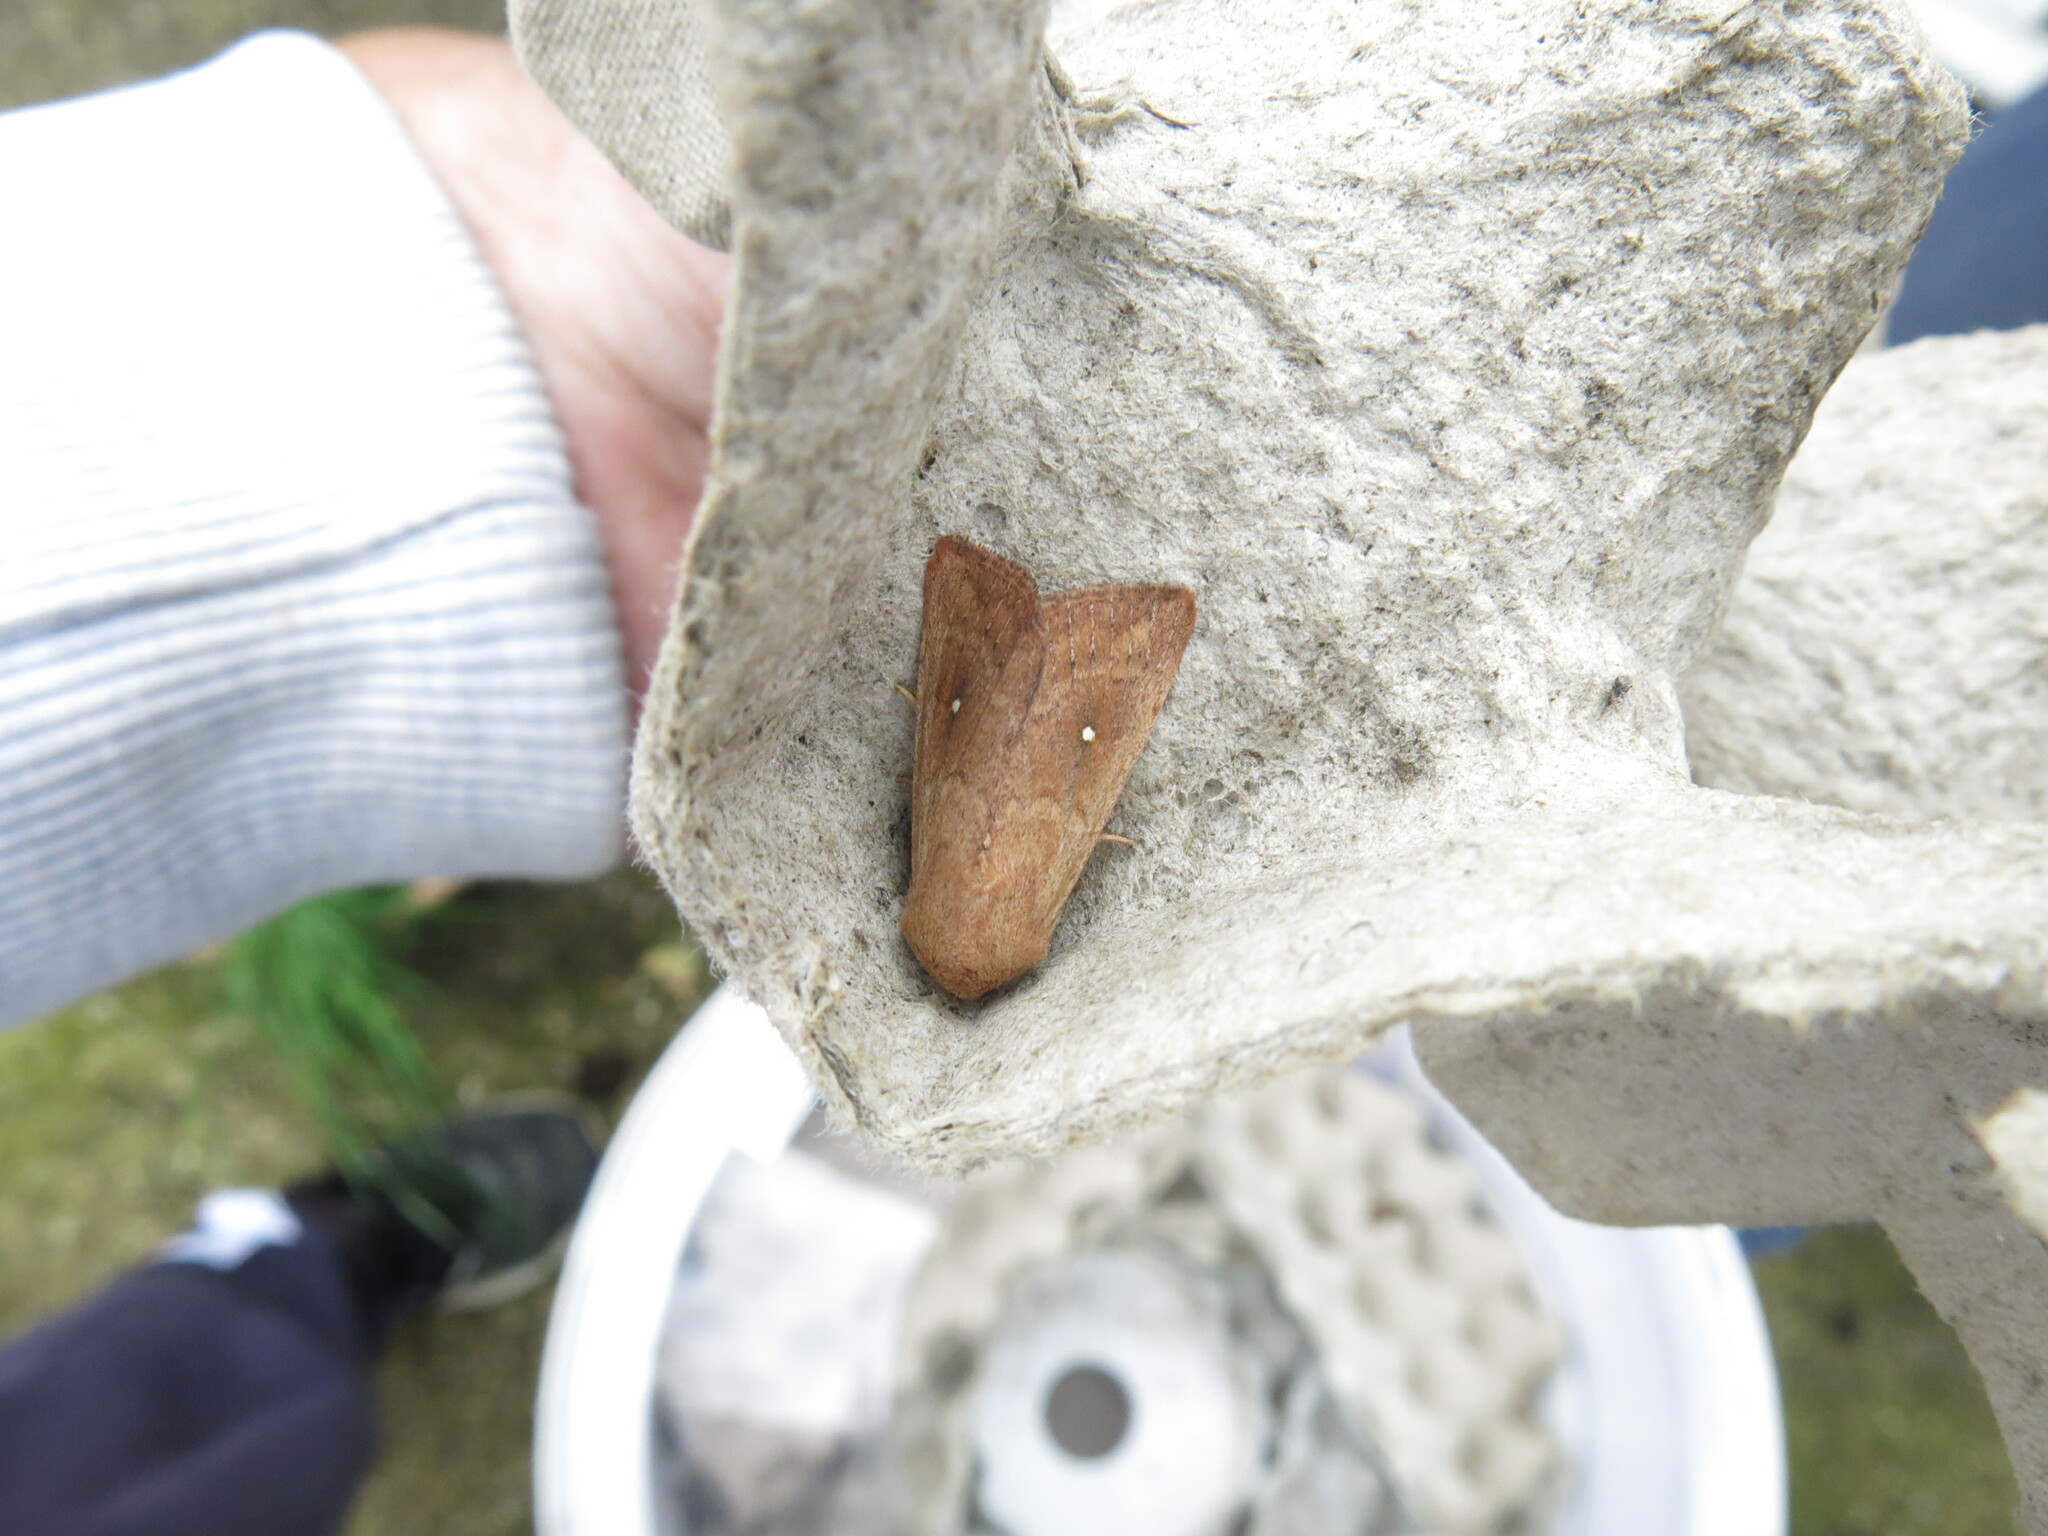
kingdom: Animalia
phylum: Arthropoda
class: Insecta
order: Lepidoptera
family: Noctuidae
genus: Mythimna
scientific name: Mythimna albipuncta
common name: White-point
